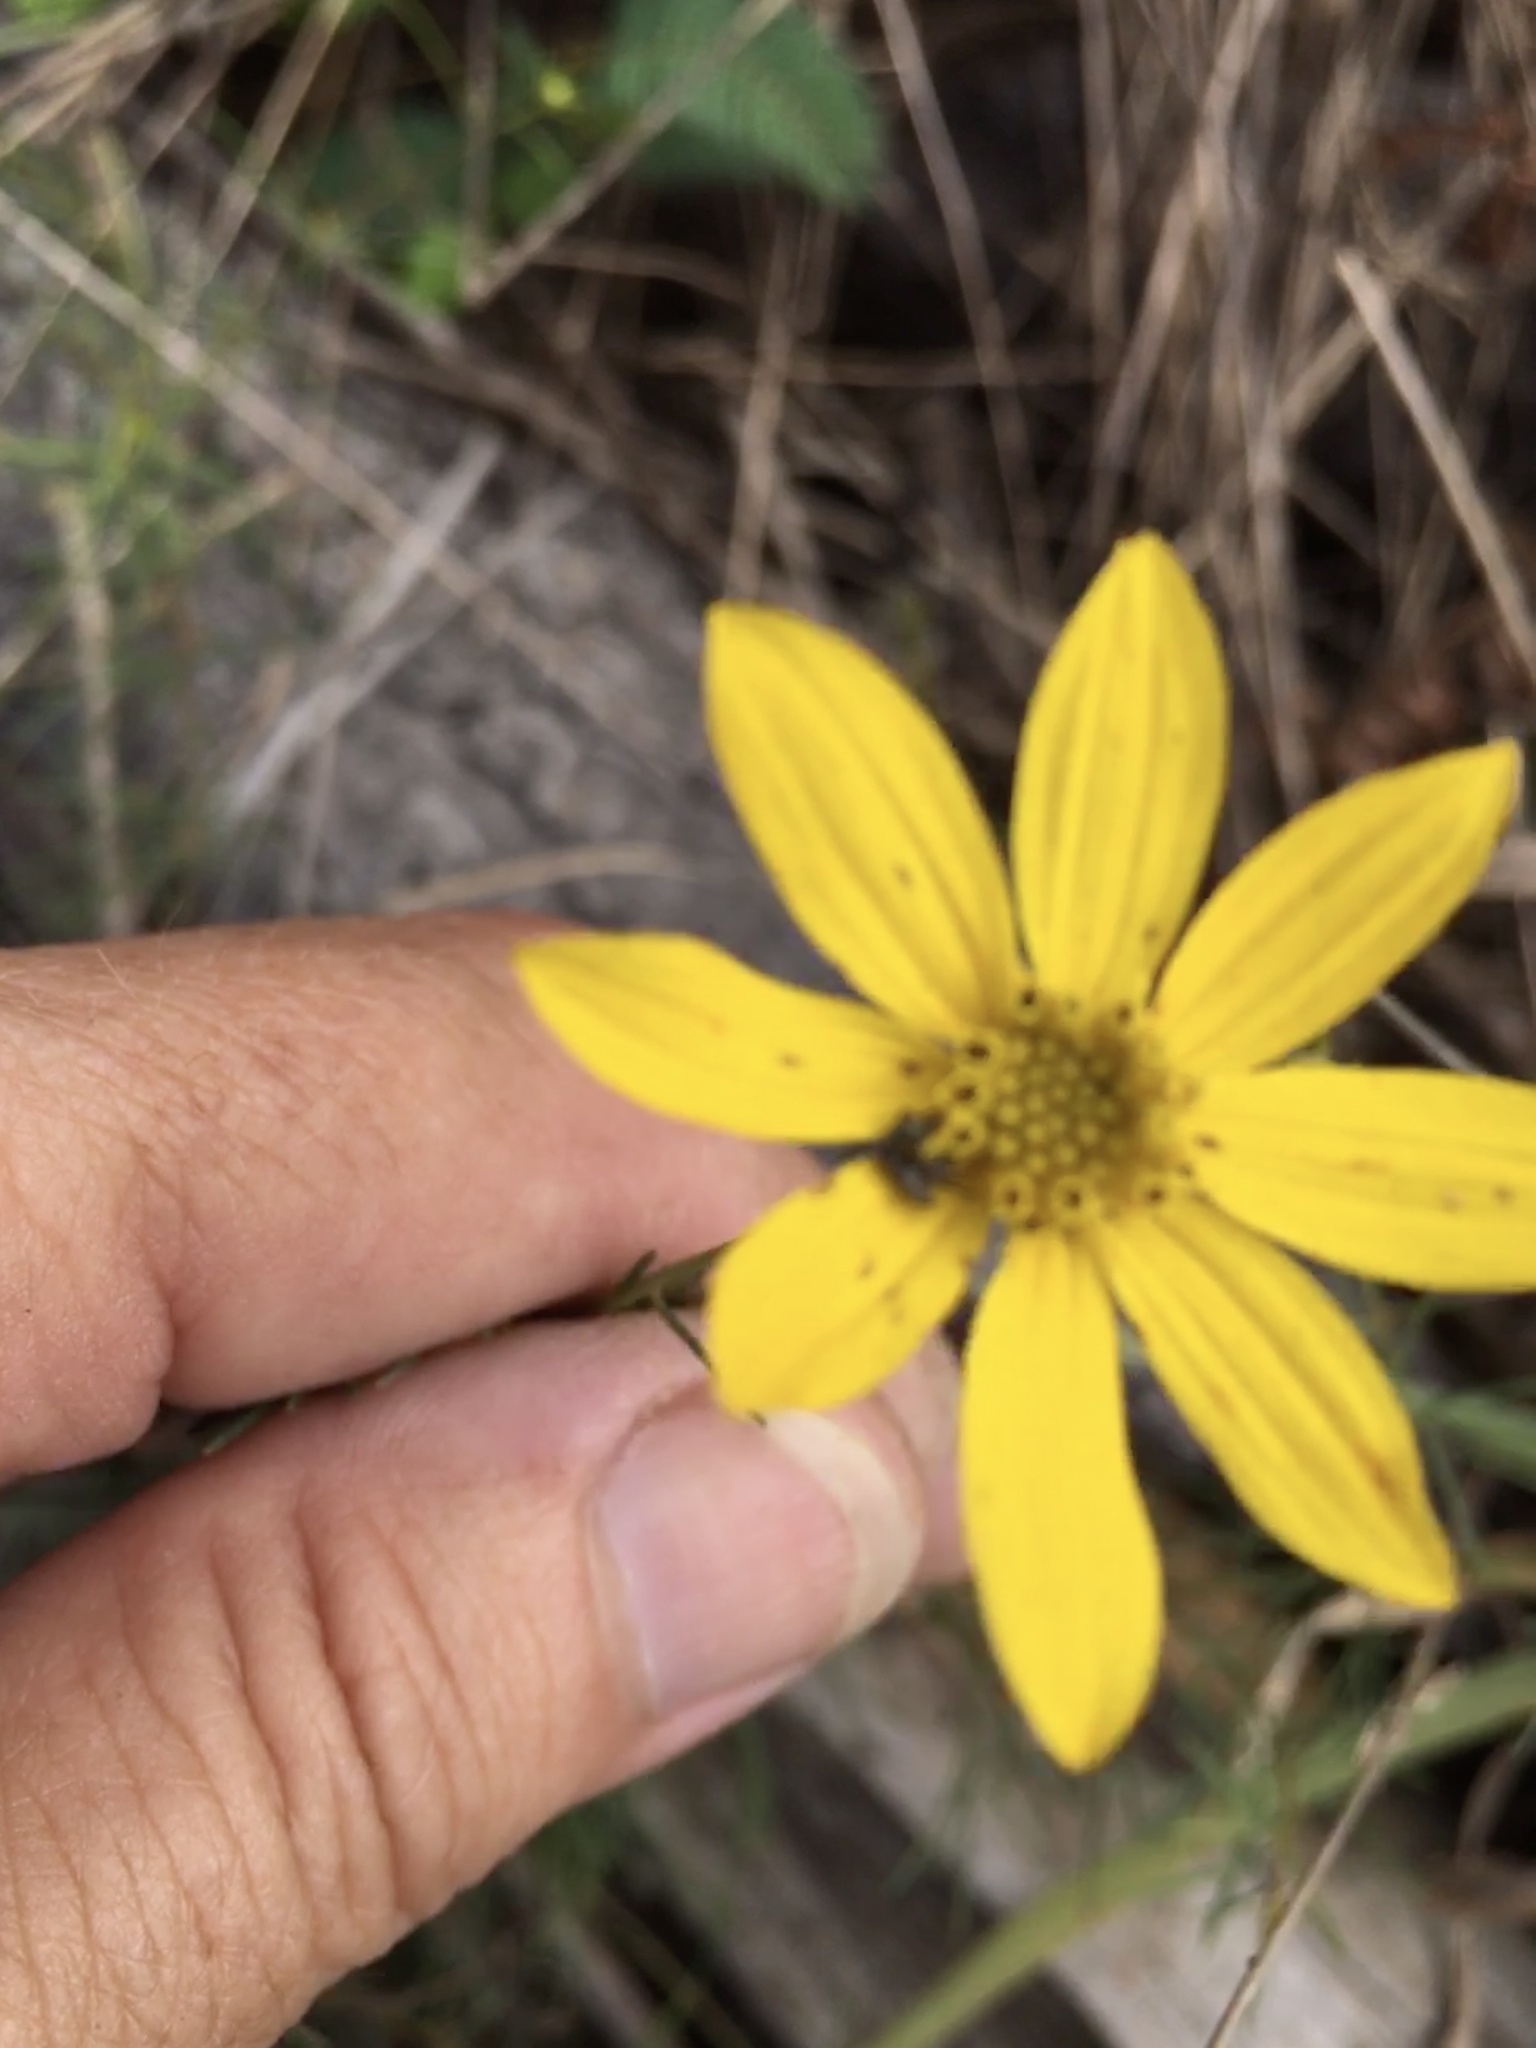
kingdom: Plantae
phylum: Tracheophyta
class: Magnoliopsida
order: Asterales
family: Asteraceae
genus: Coreopsis
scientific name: Coreopsis verticillata
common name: Whorled tickseed
